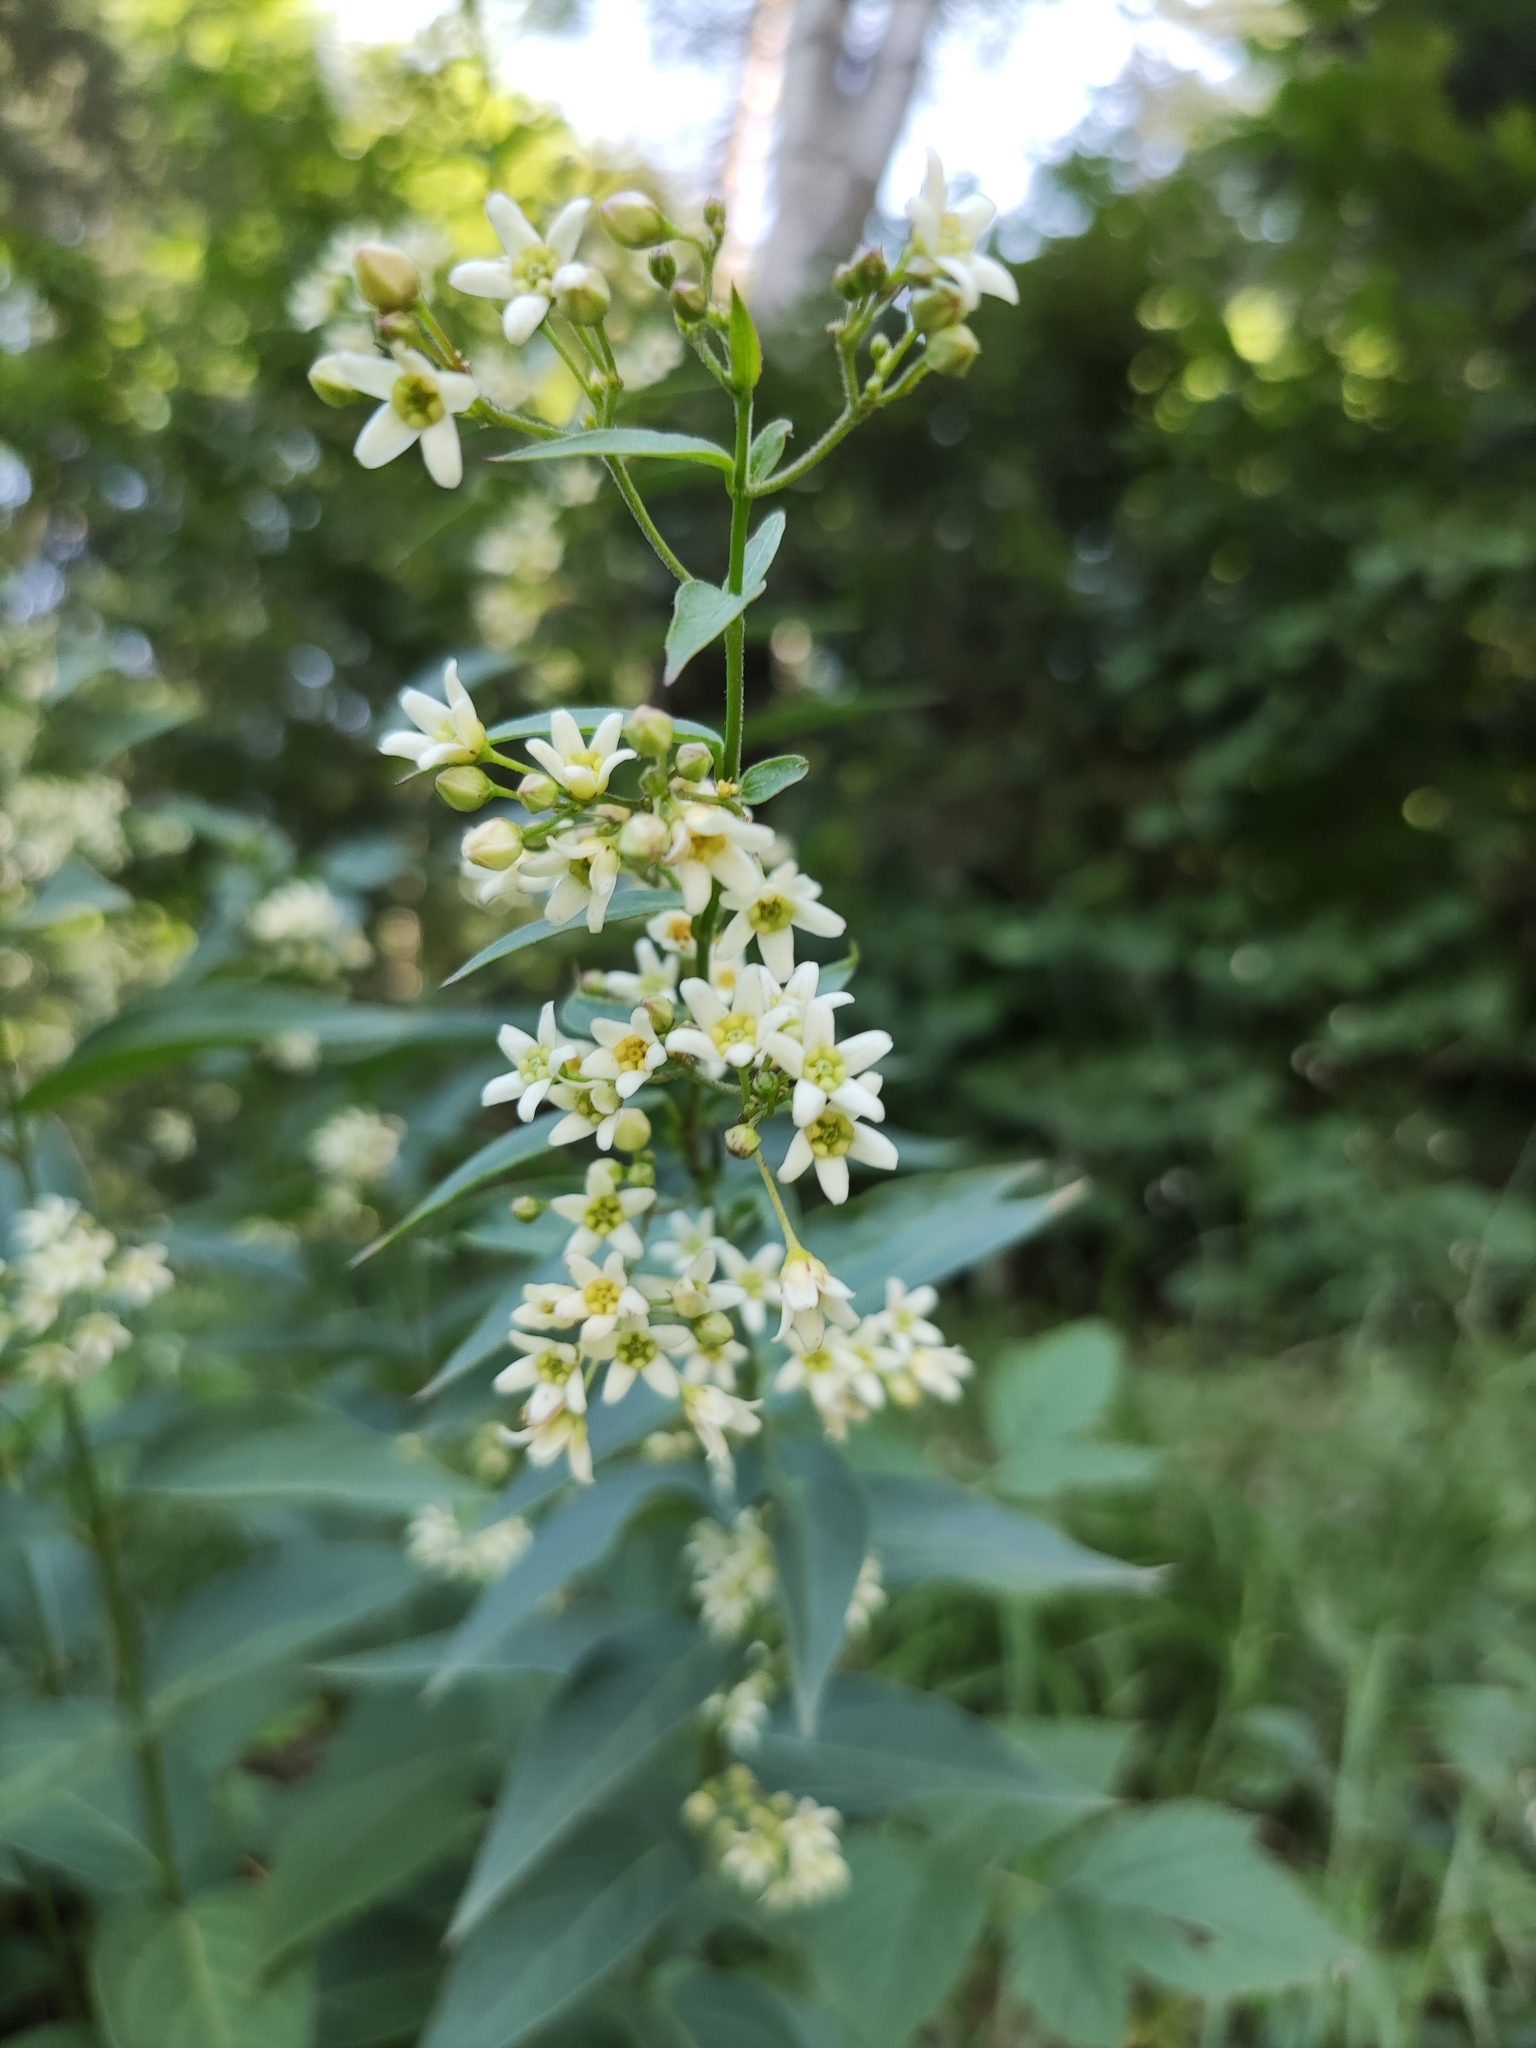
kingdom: Plantae
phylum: Tracheophyta
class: Magnoliopsida
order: Gentianales
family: Apocynaceae
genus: Vincetoxicum
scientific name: Vincetoxicum hirundinaria
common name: White swallowwort
